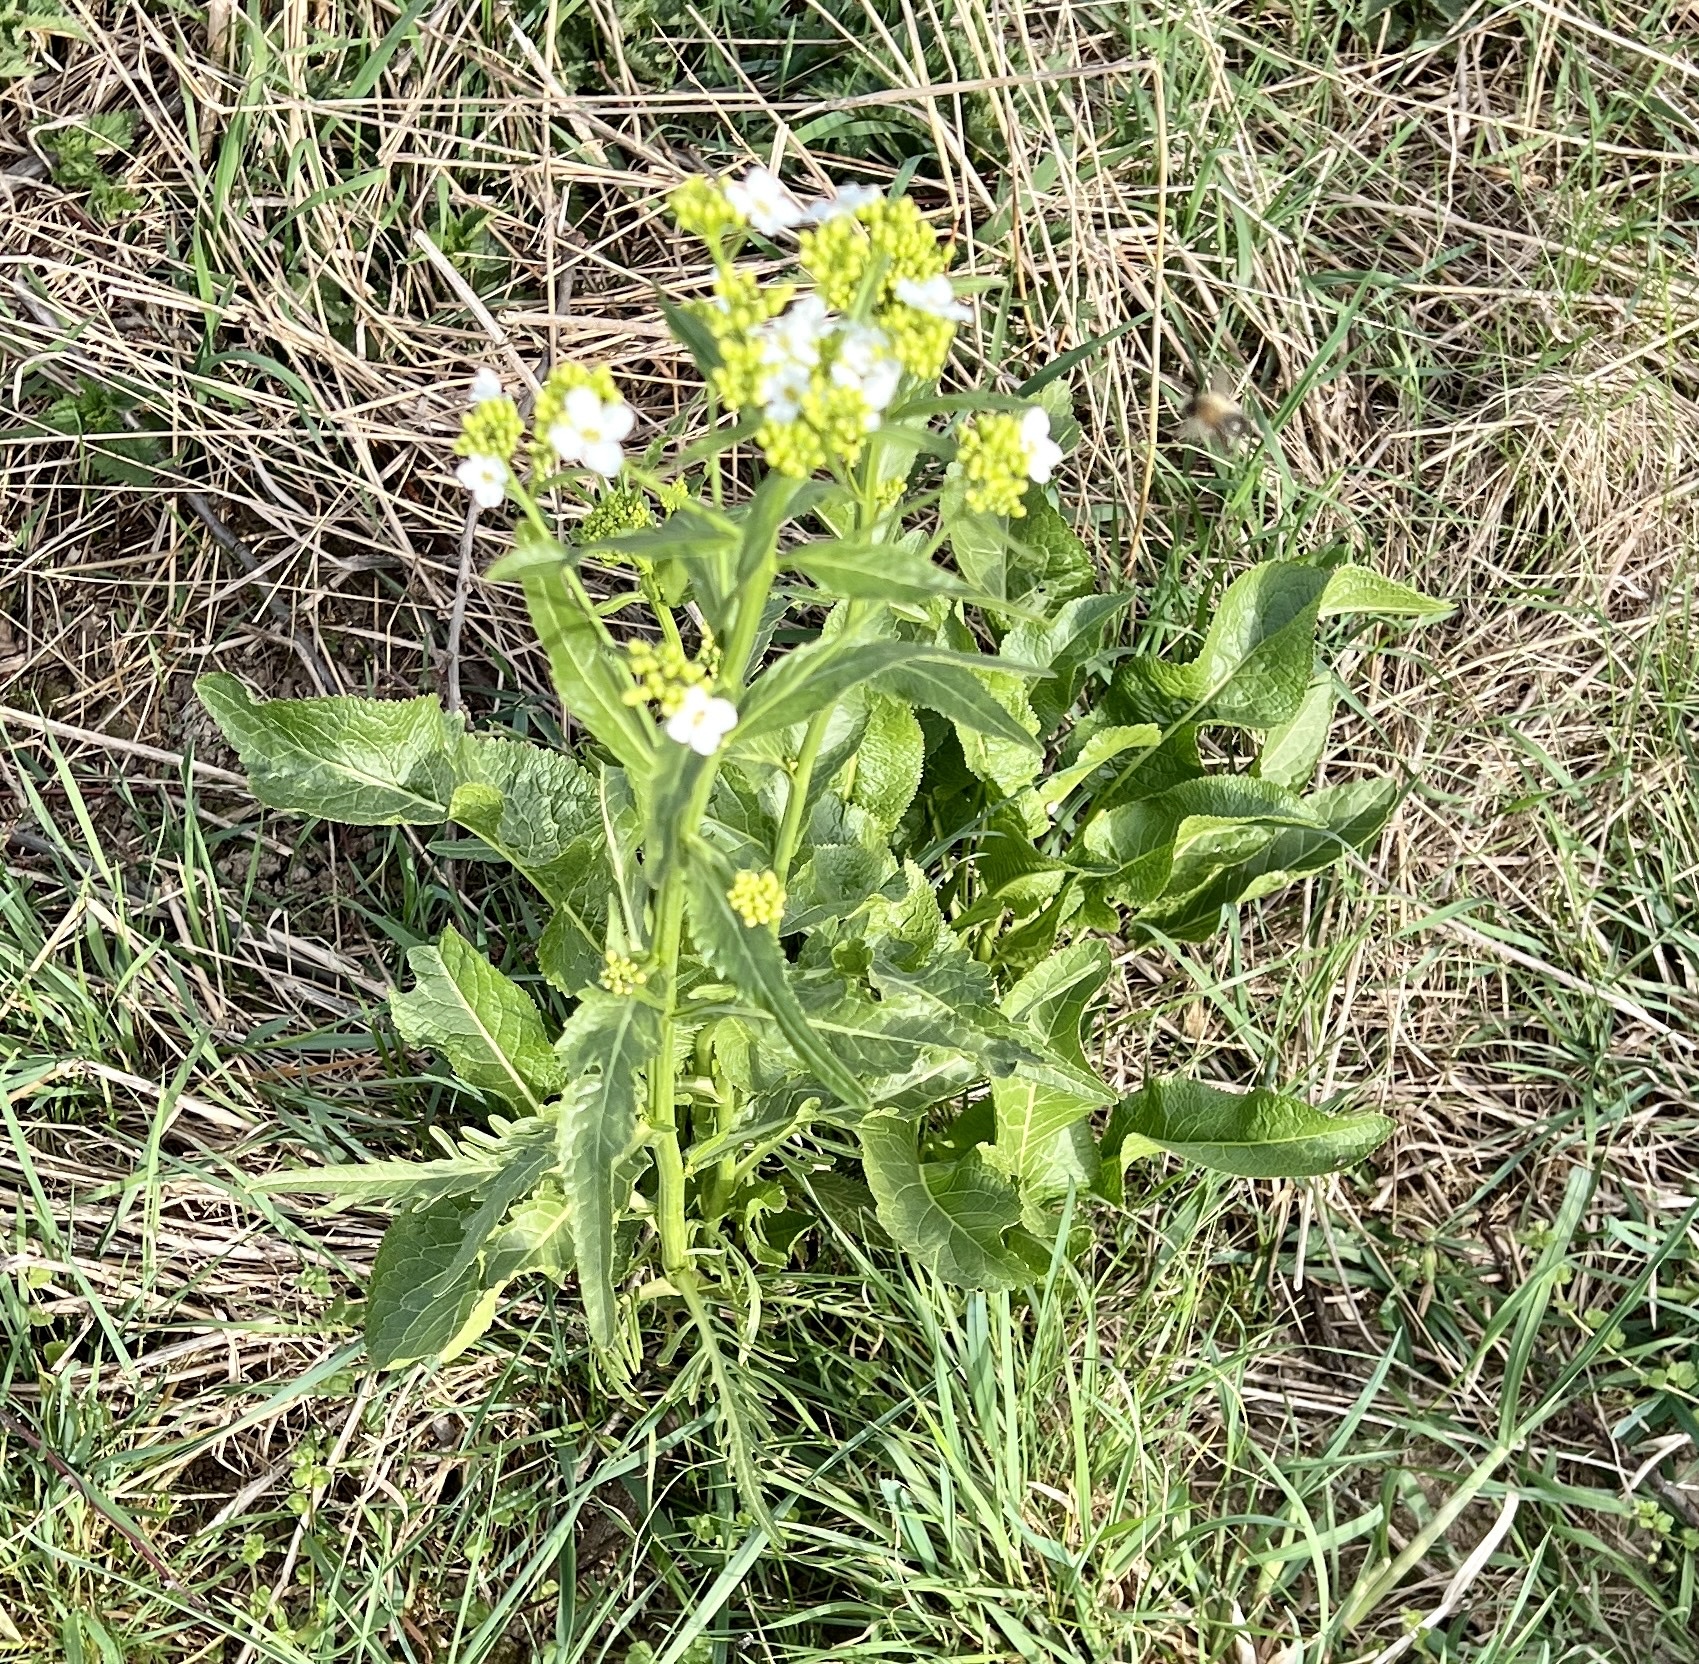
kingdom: Plantae
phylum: Tracheophyta
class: Magnoliopsida
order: Brassicales
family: Brassicaceae
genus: Armoracia
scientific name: Armoracia rusticana
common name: Horseradish
